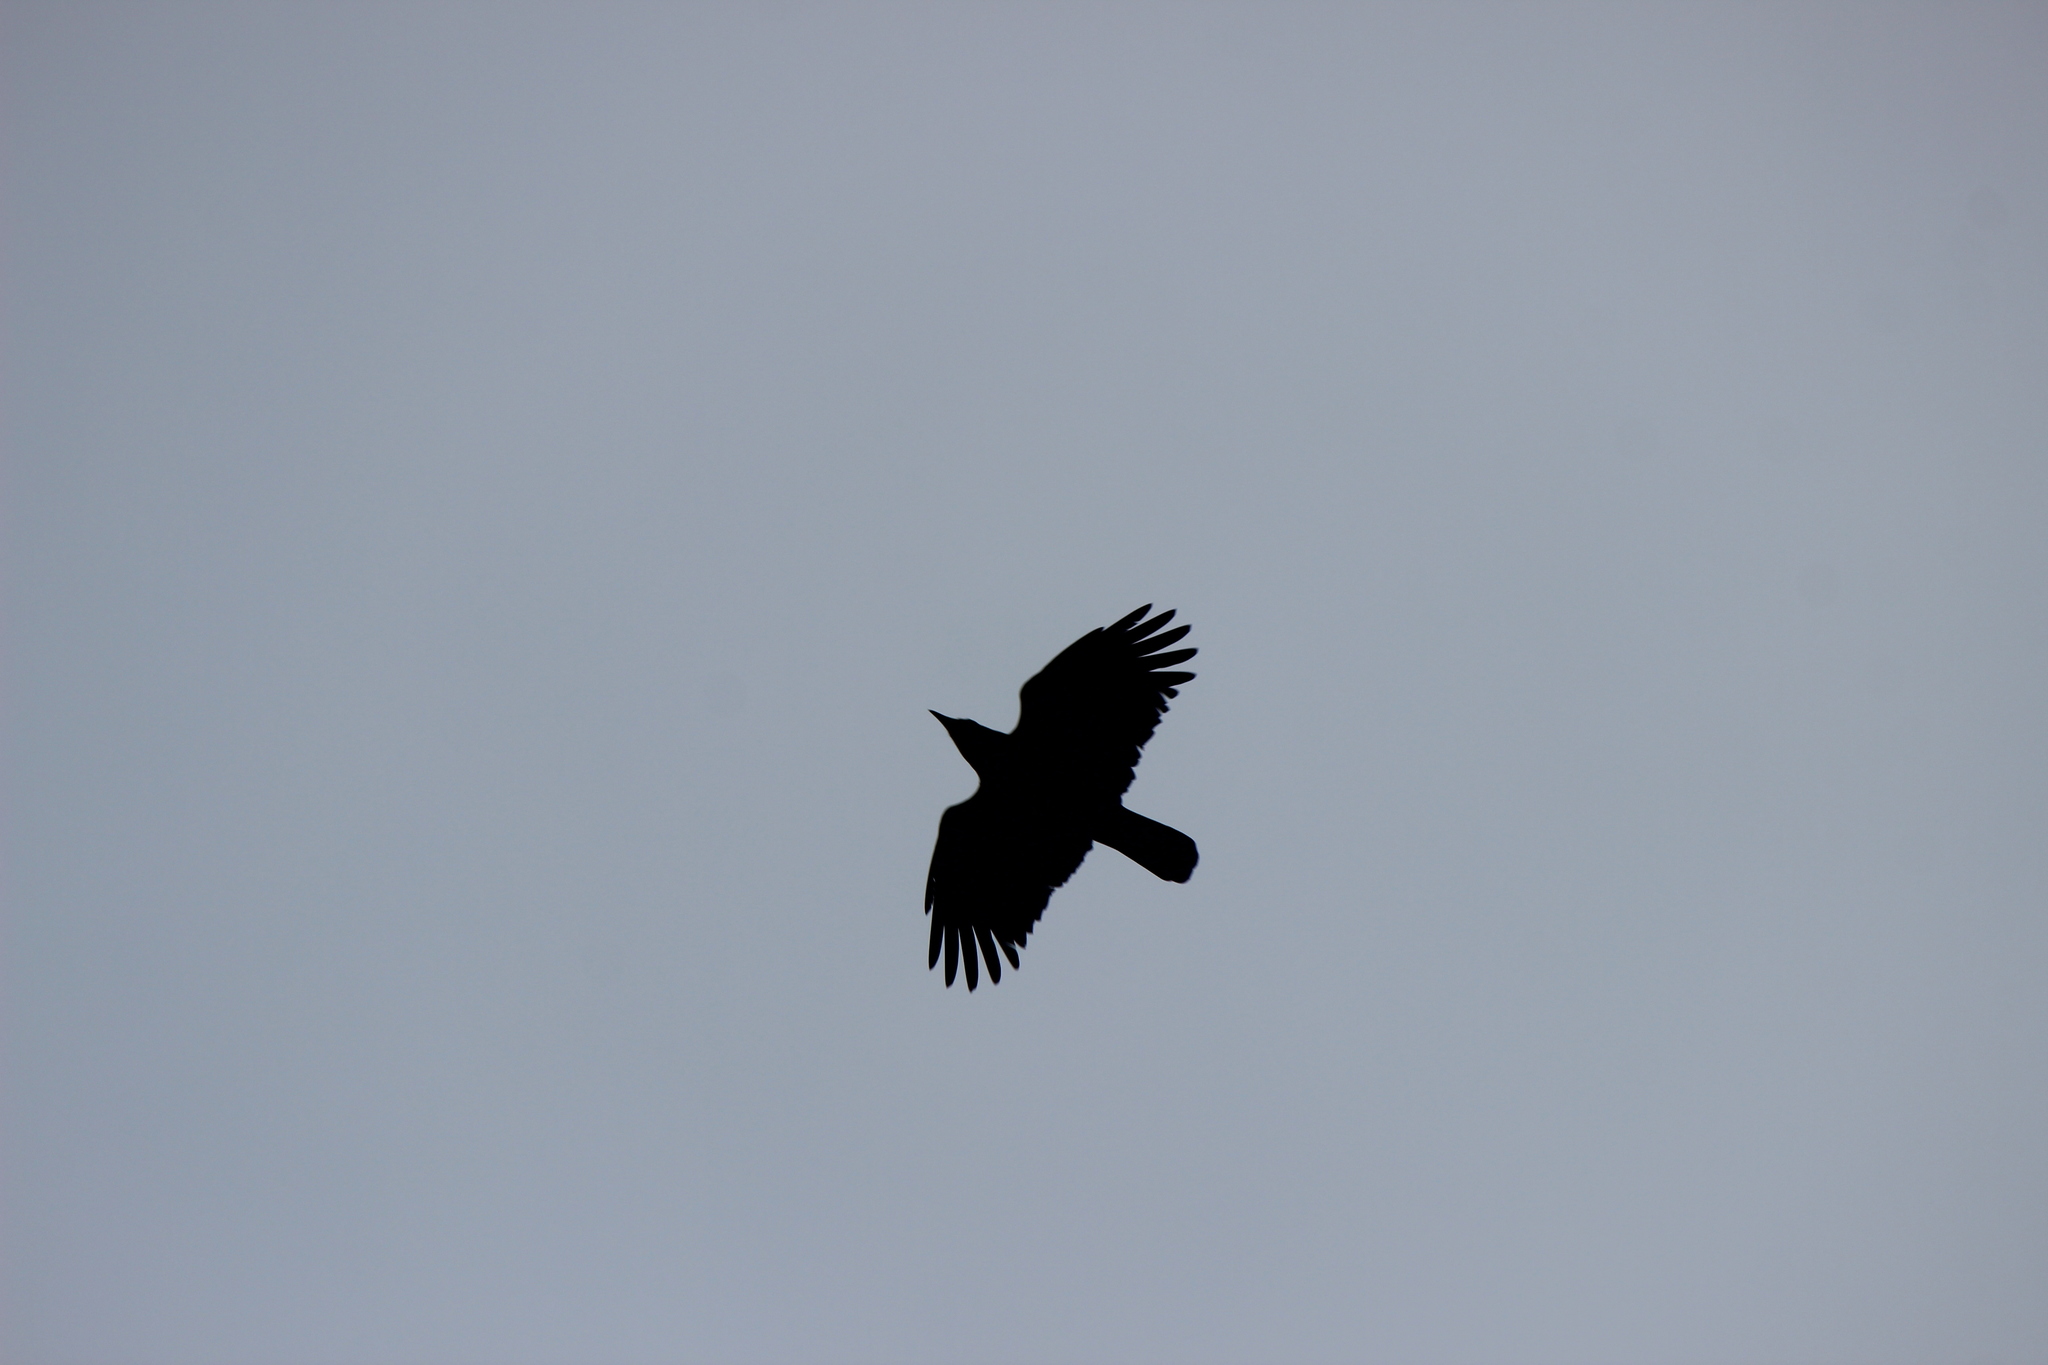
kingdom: Animalia
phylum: Chordata
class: Aves
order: Passeriformes
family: Corvidae
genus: Corvus
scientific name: Corvus brachyrhynchos
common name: American crow
